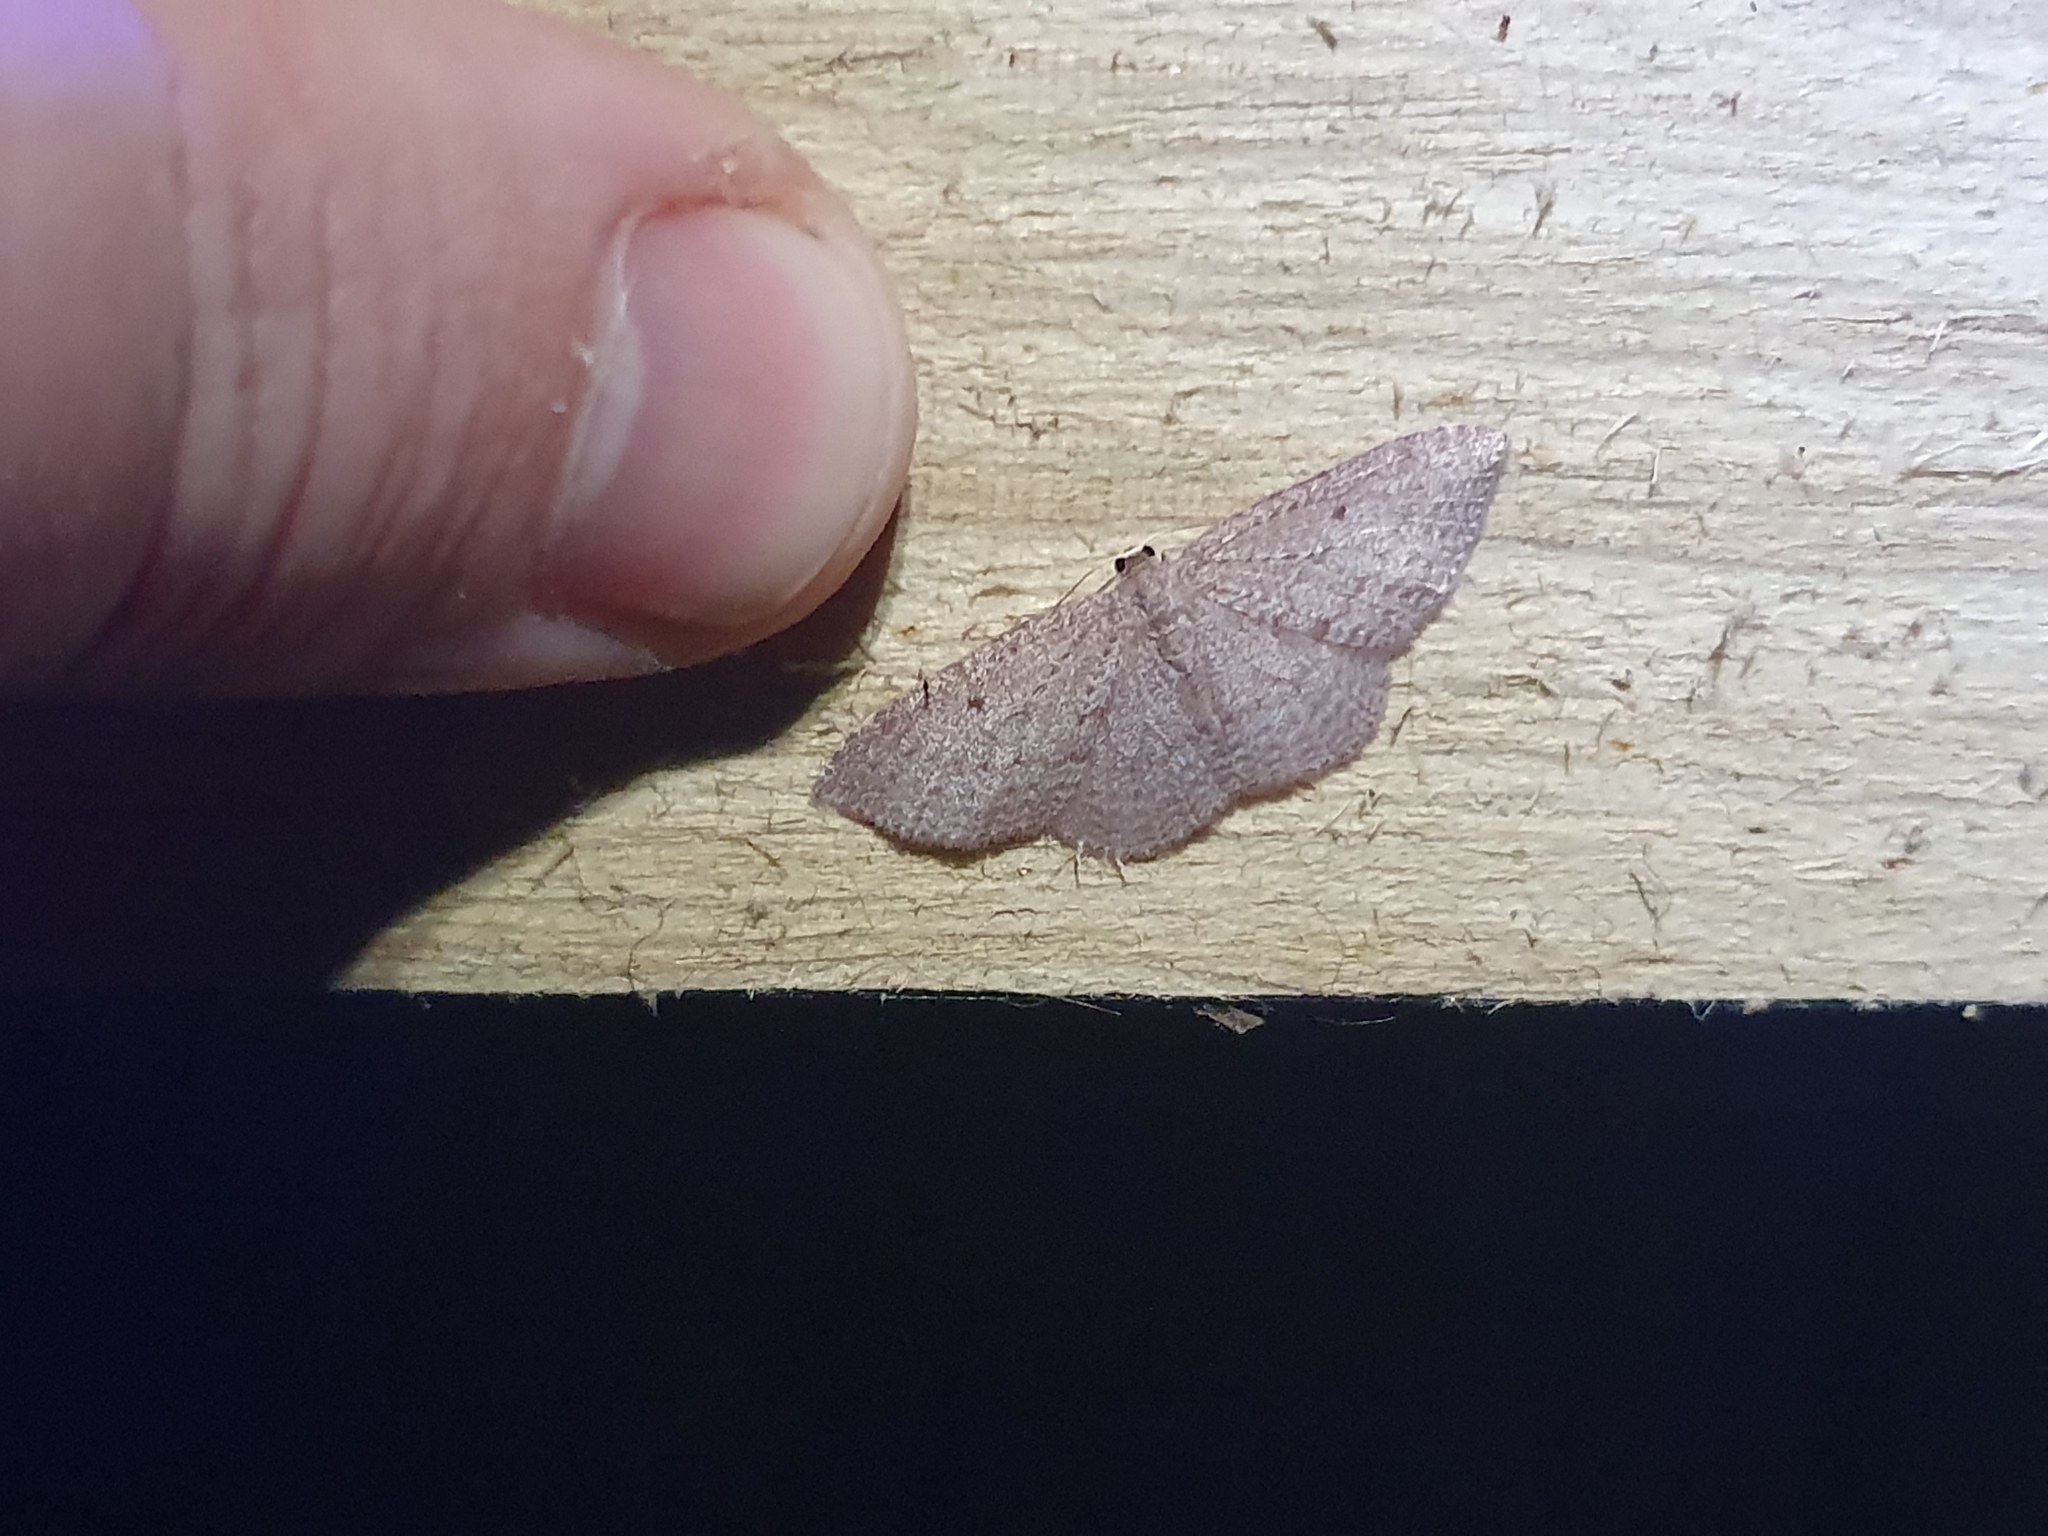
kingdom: Animalia
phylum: Arthropoda
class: Insecta
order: Lepidoptera
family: Geometridae
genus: Poecilasthena
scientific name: Poecilasthena schistaria
